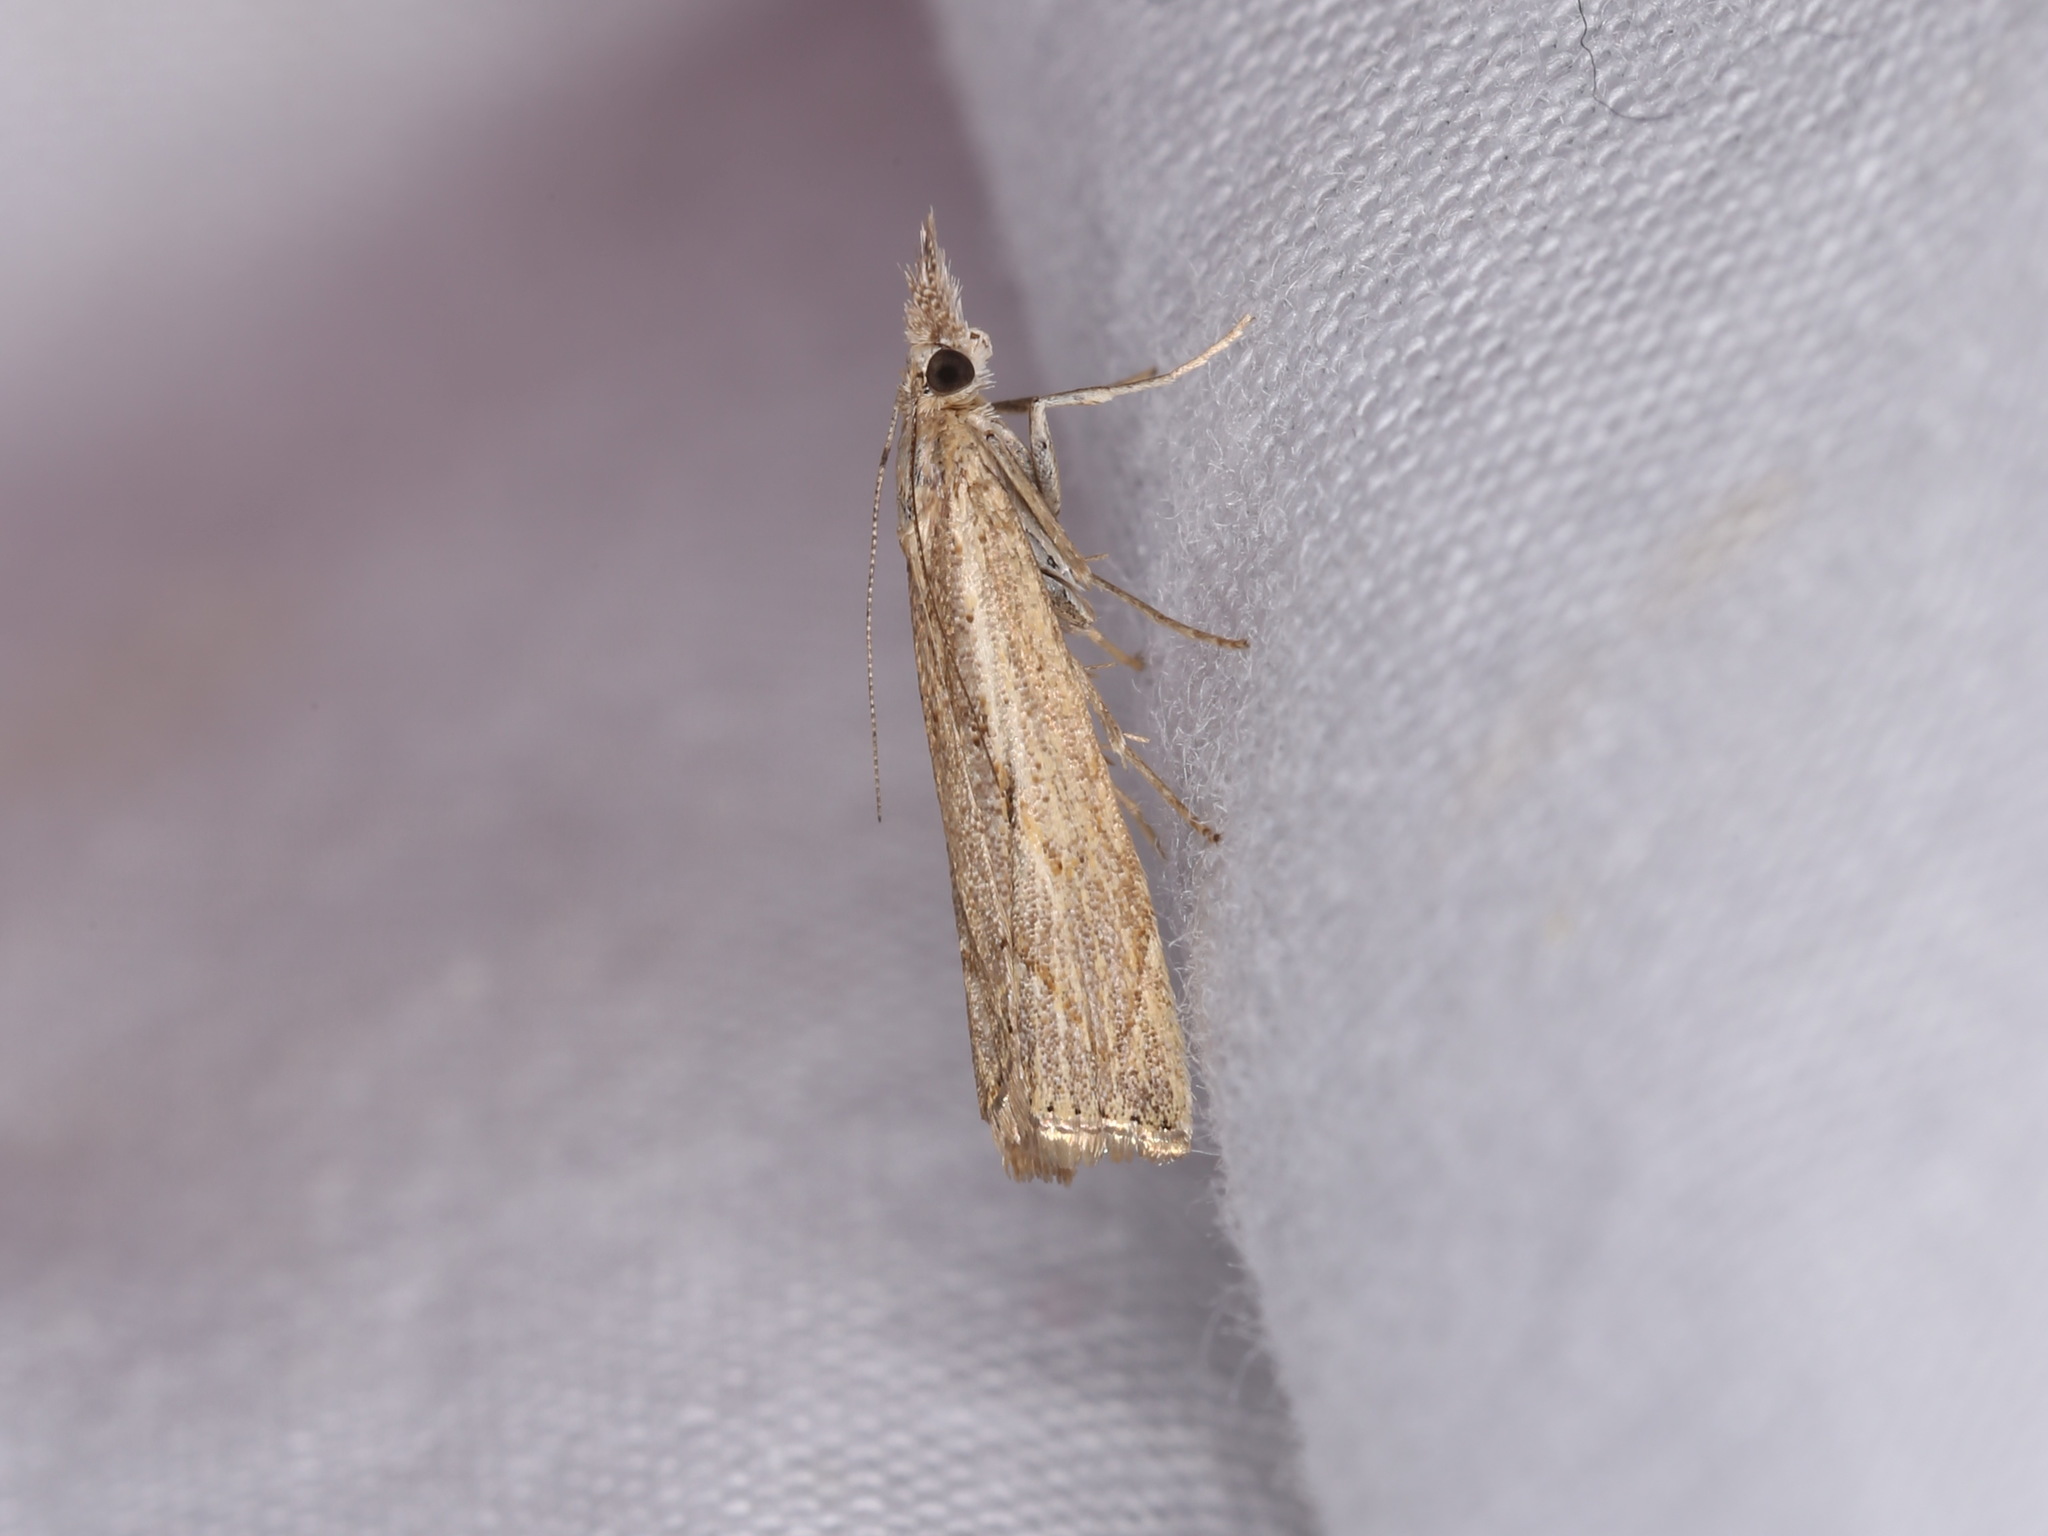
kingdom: Animalia
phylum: Arthropoda
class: Insecta
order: Lepidoptera
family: Crambidae
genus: Agriphila
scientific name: Agriphila geniculea
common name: Elbow-stripe grass-veneer
